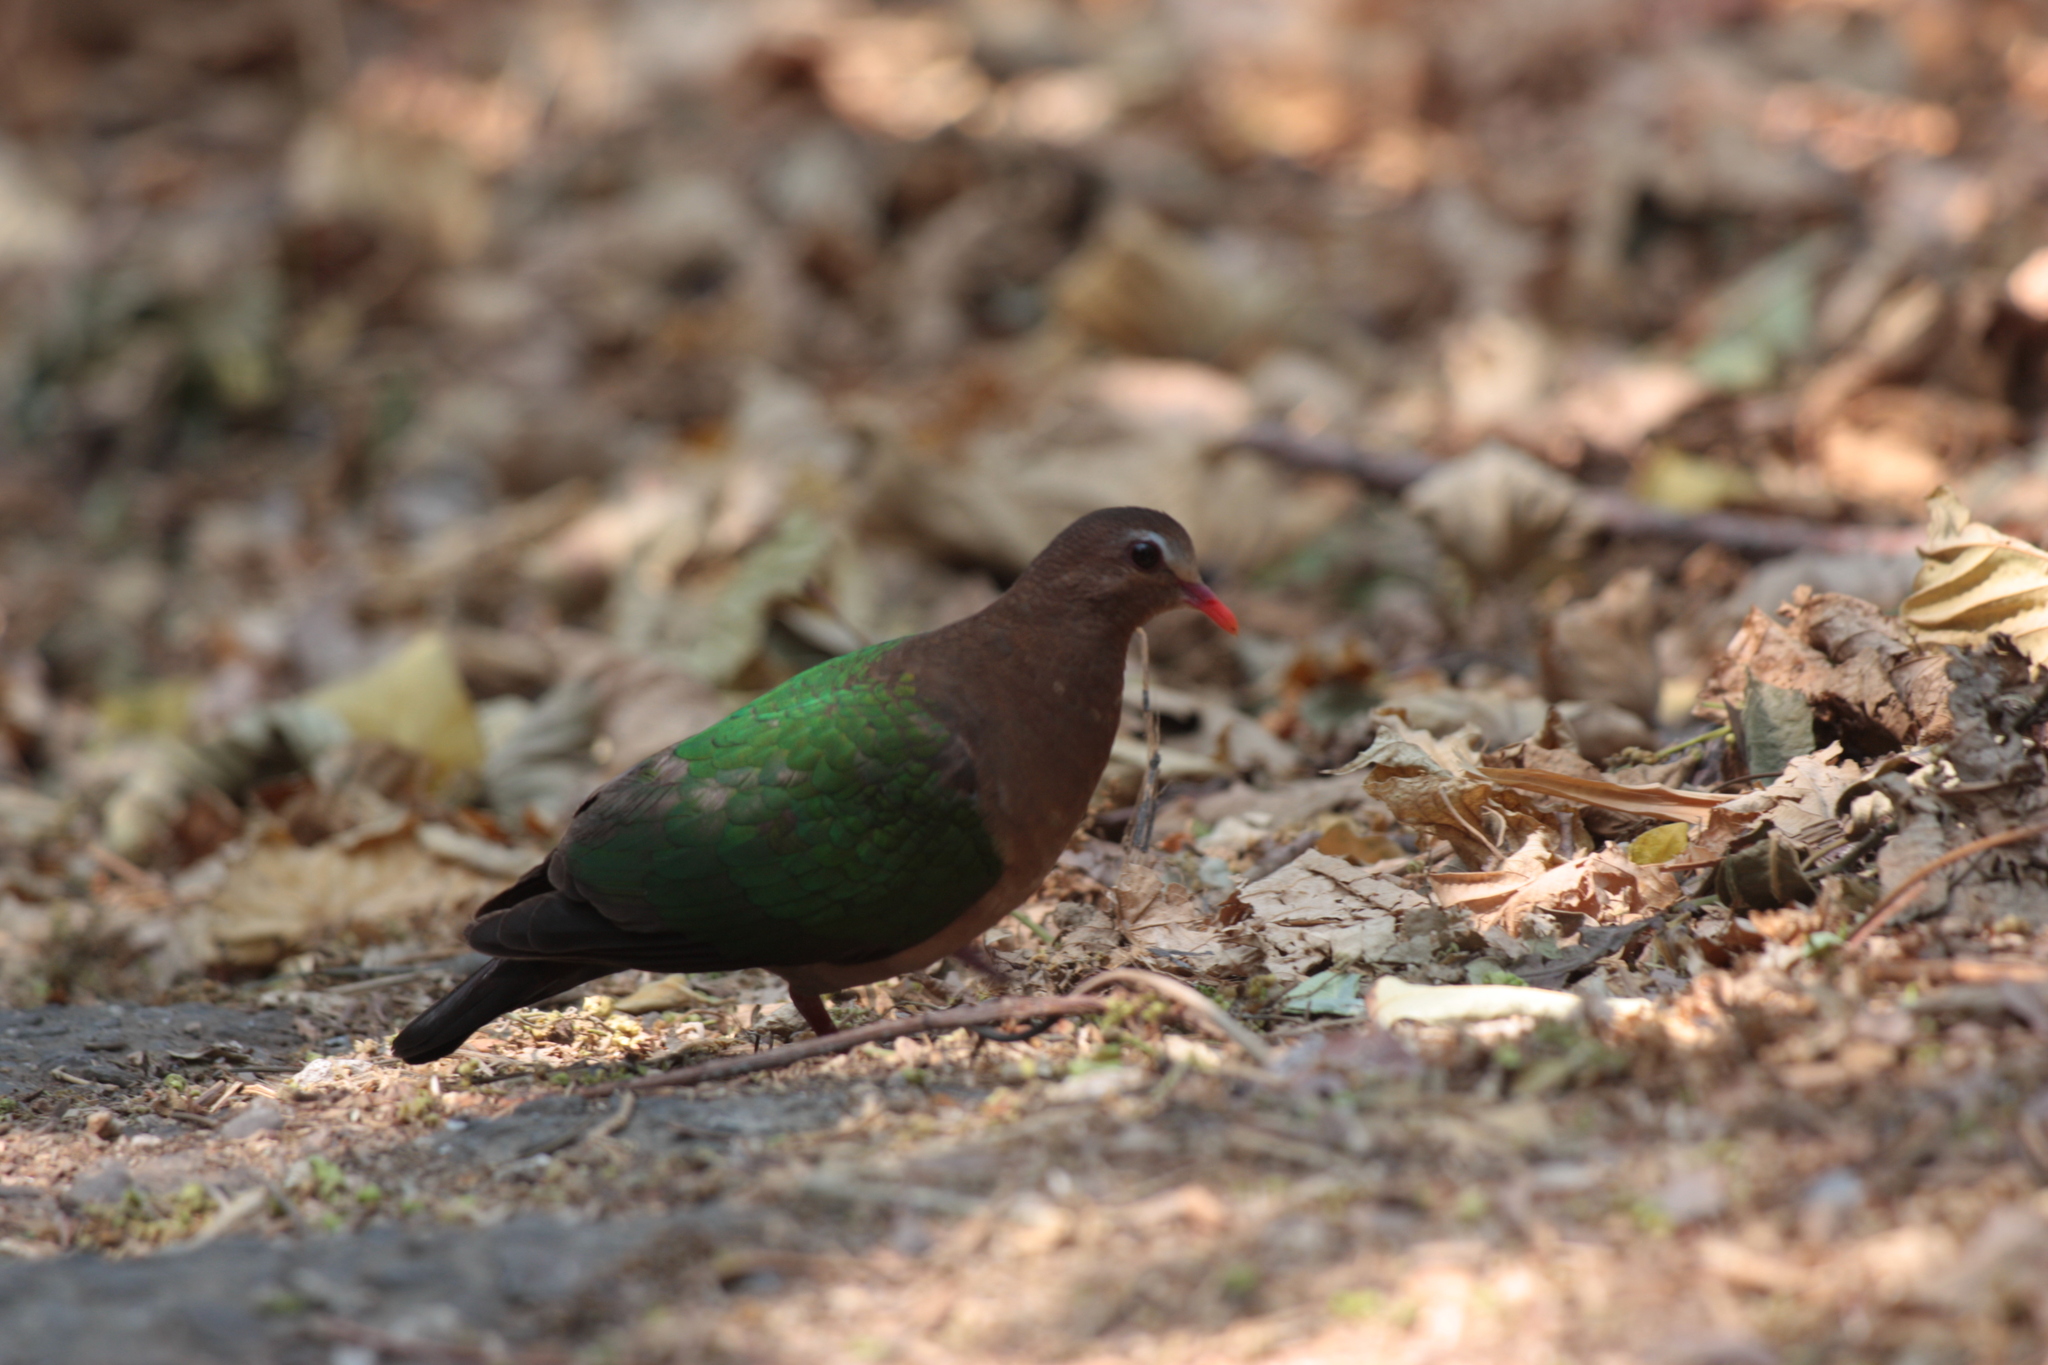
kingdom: Animalia
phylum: Chordata
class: Aves
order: Columbiformes
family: Columbidae
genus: Chalcophaps
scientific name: Chalcophaps indica
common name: Common emerald dove
